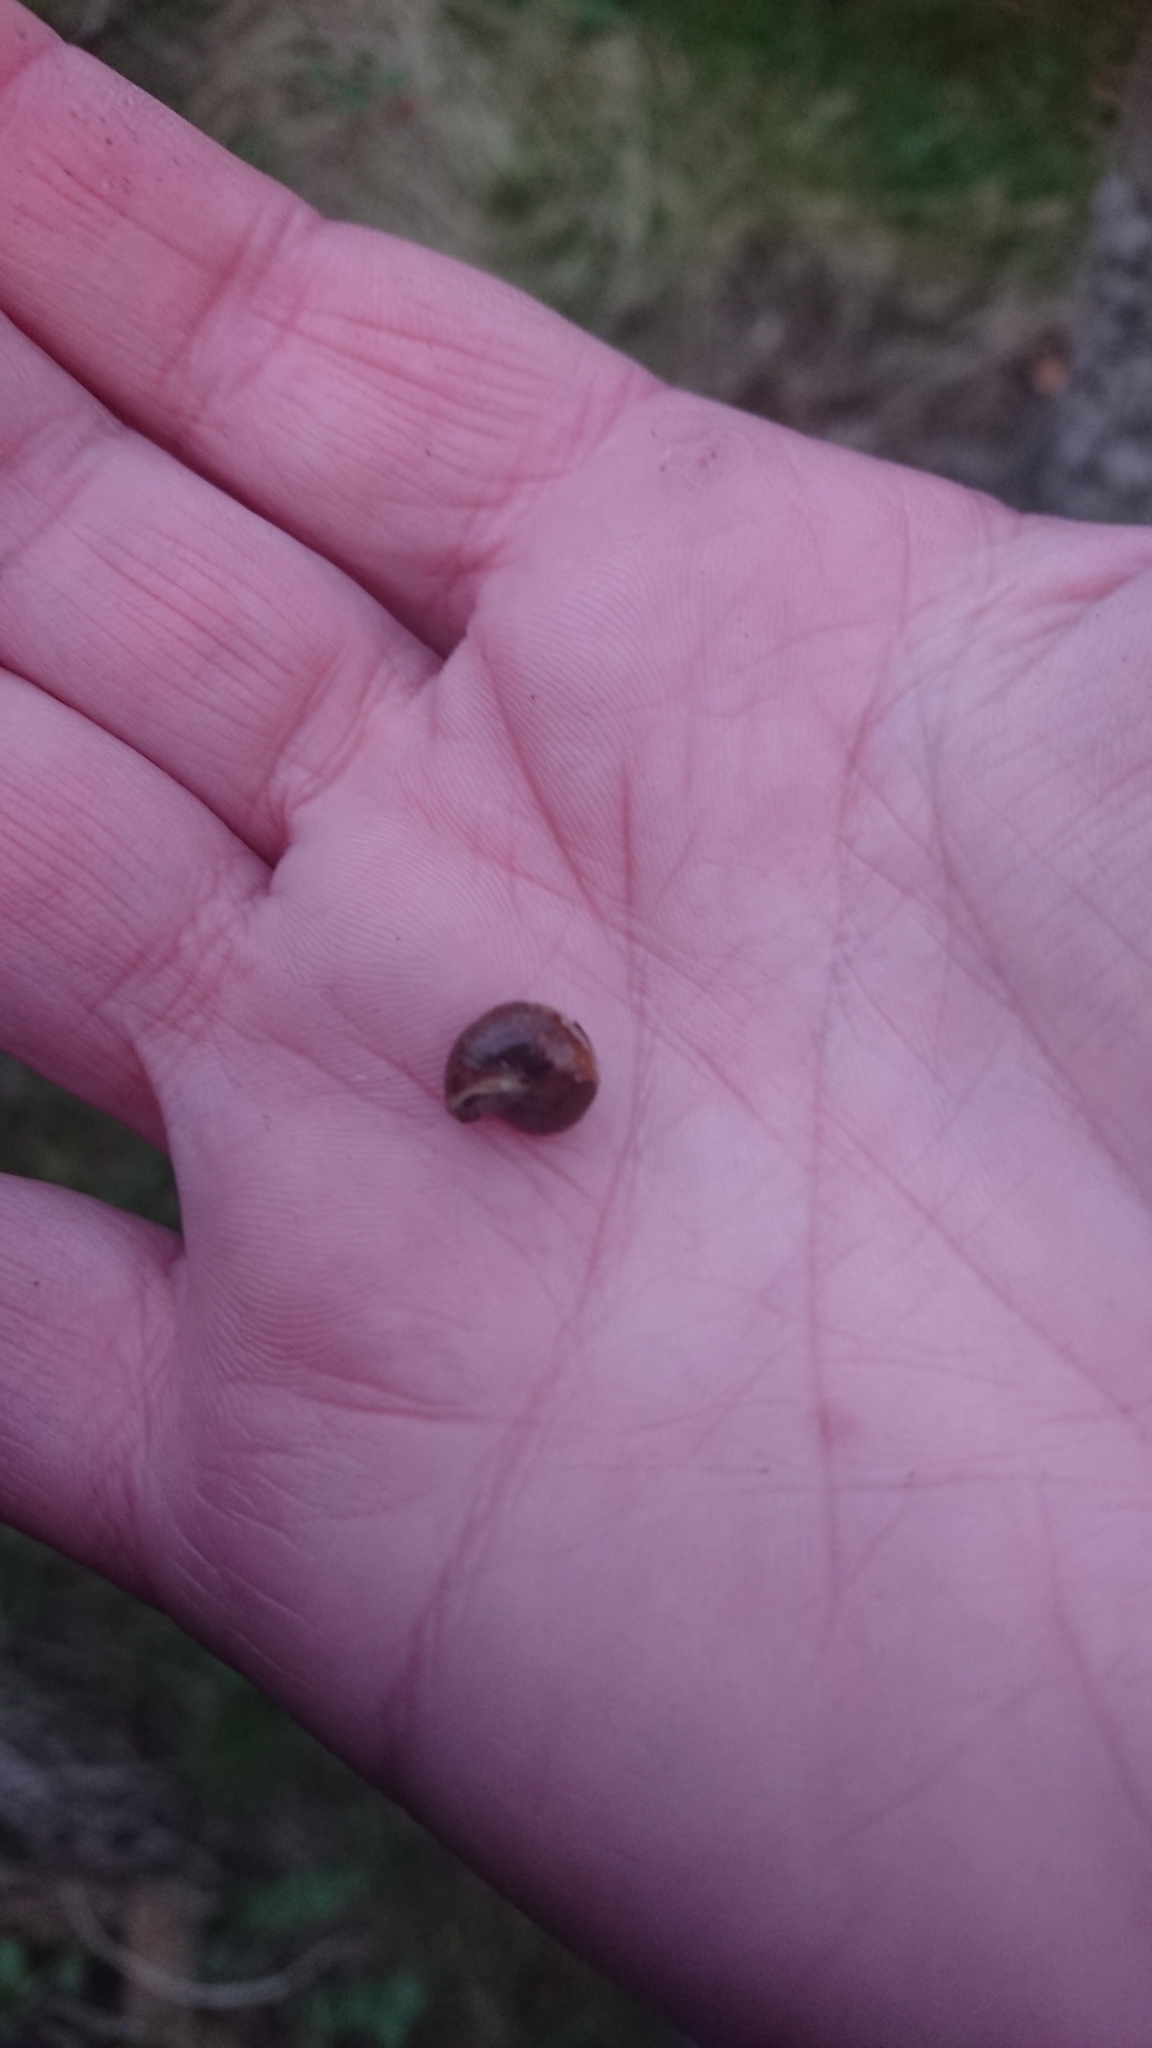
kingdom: Animalia
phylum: Mollusca
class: Gastropoda
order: Stylommatophora
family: Hygromiidae
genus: Hygromia
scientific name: Hygromia cinctella
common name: Girdled snail
